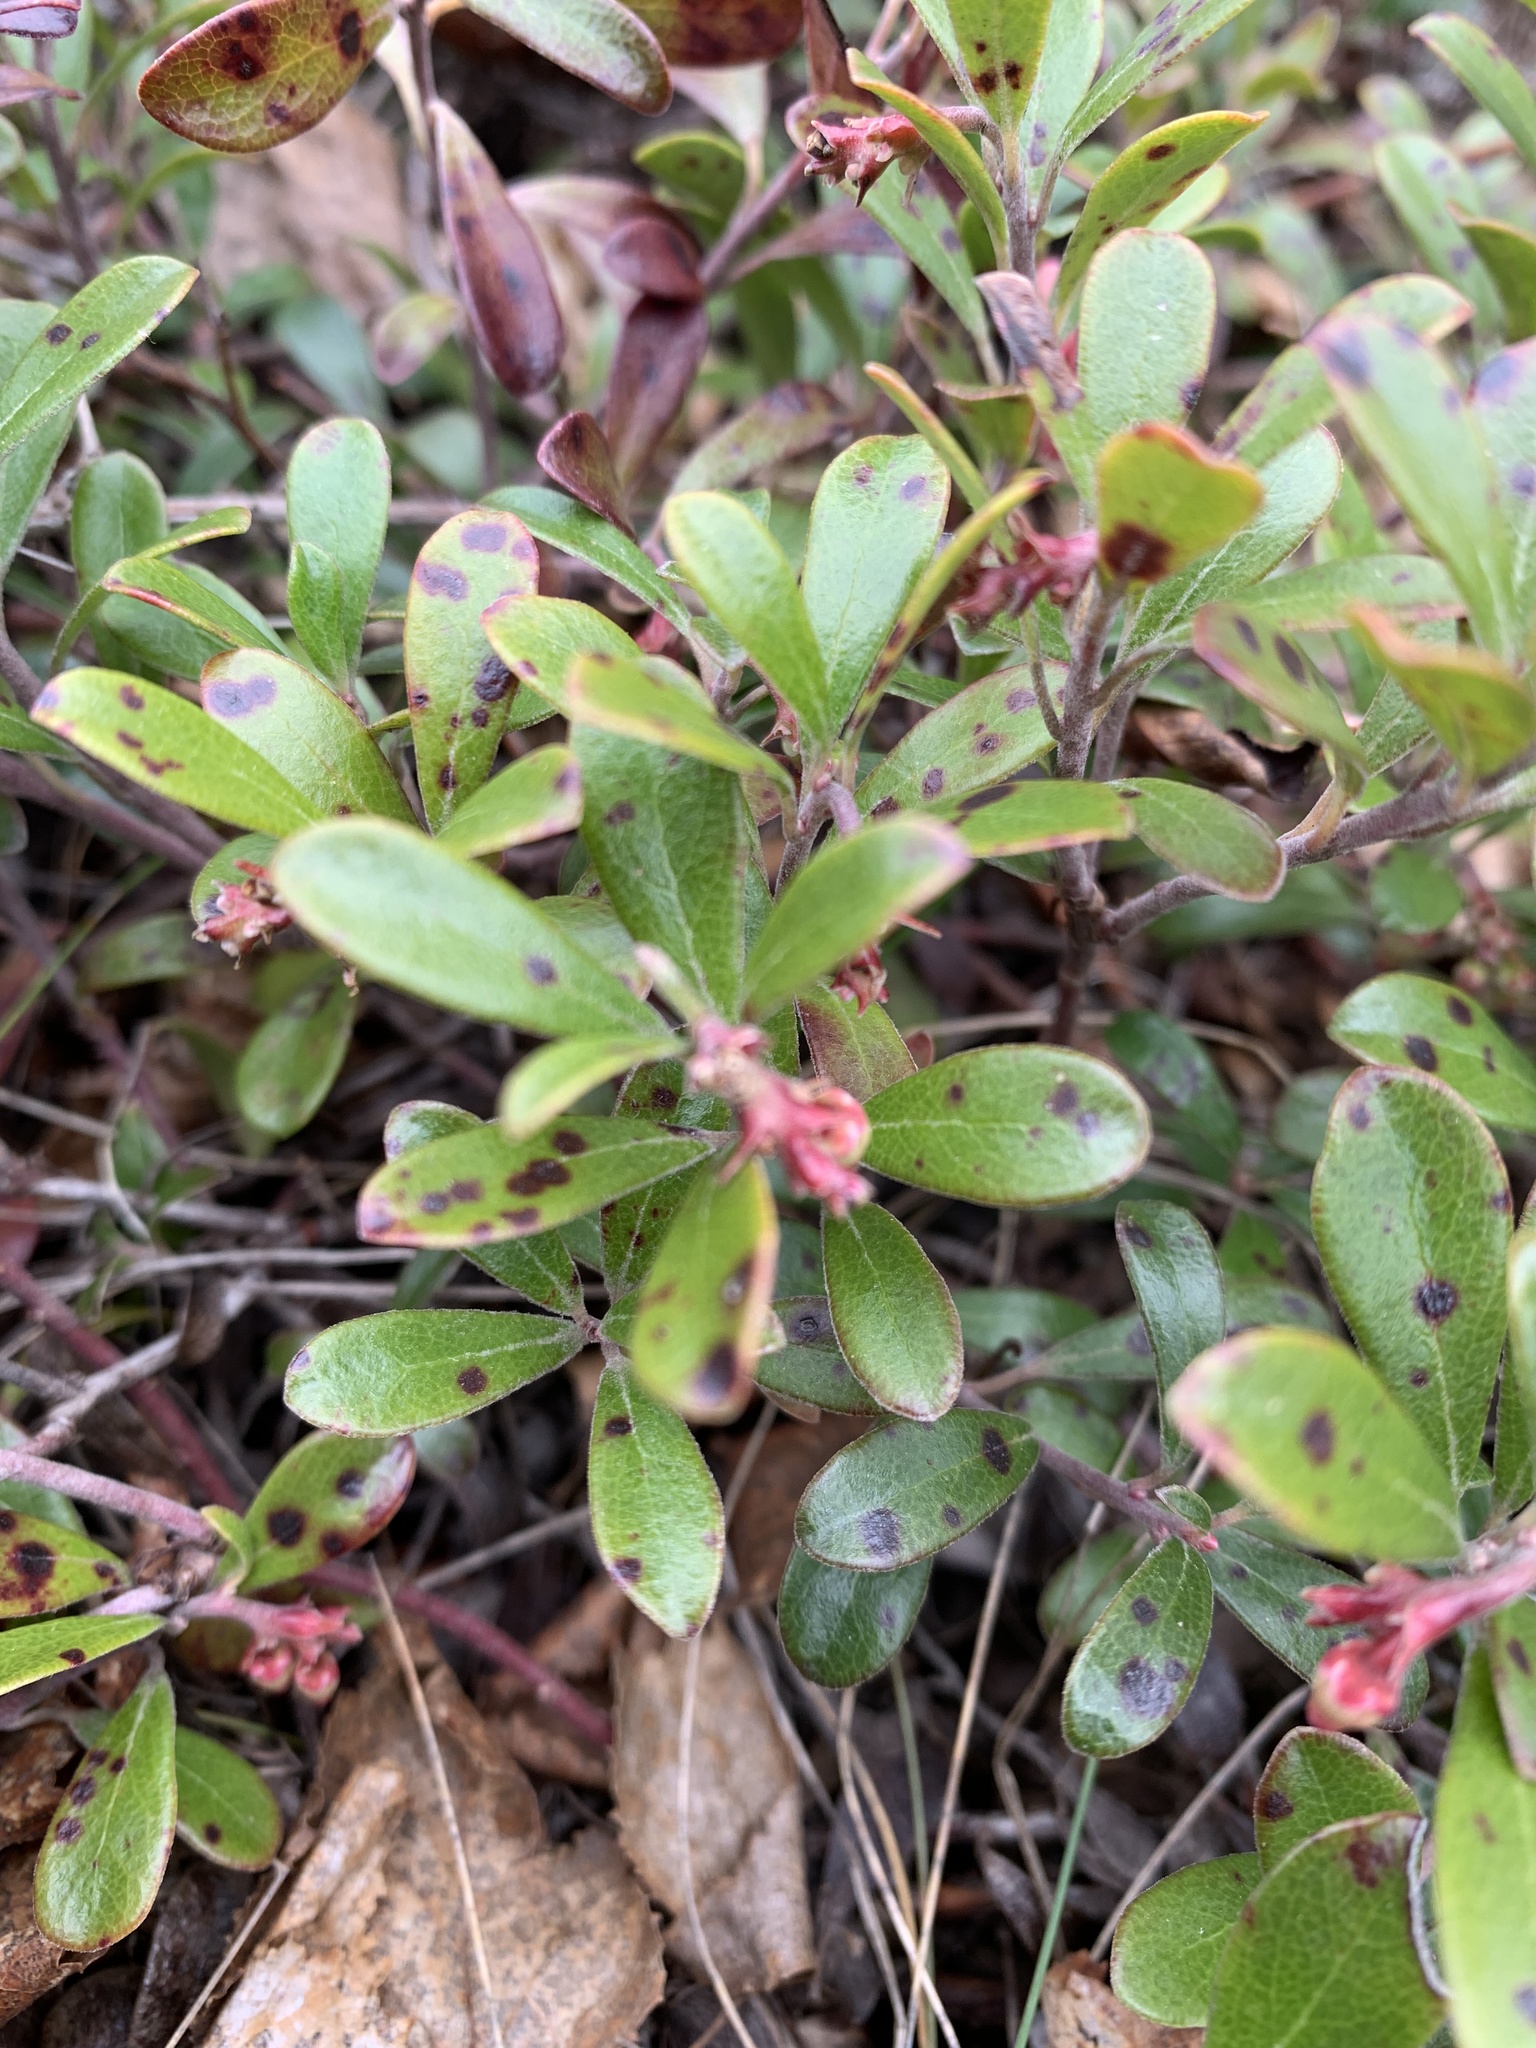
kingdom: Plantae
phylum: Tracheophyta
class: Magnoliopsida
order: Ericales
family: Ericaceae
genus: Arctostaphylos
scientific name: Arctostaphylos uva-ursi
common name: Bearberry
